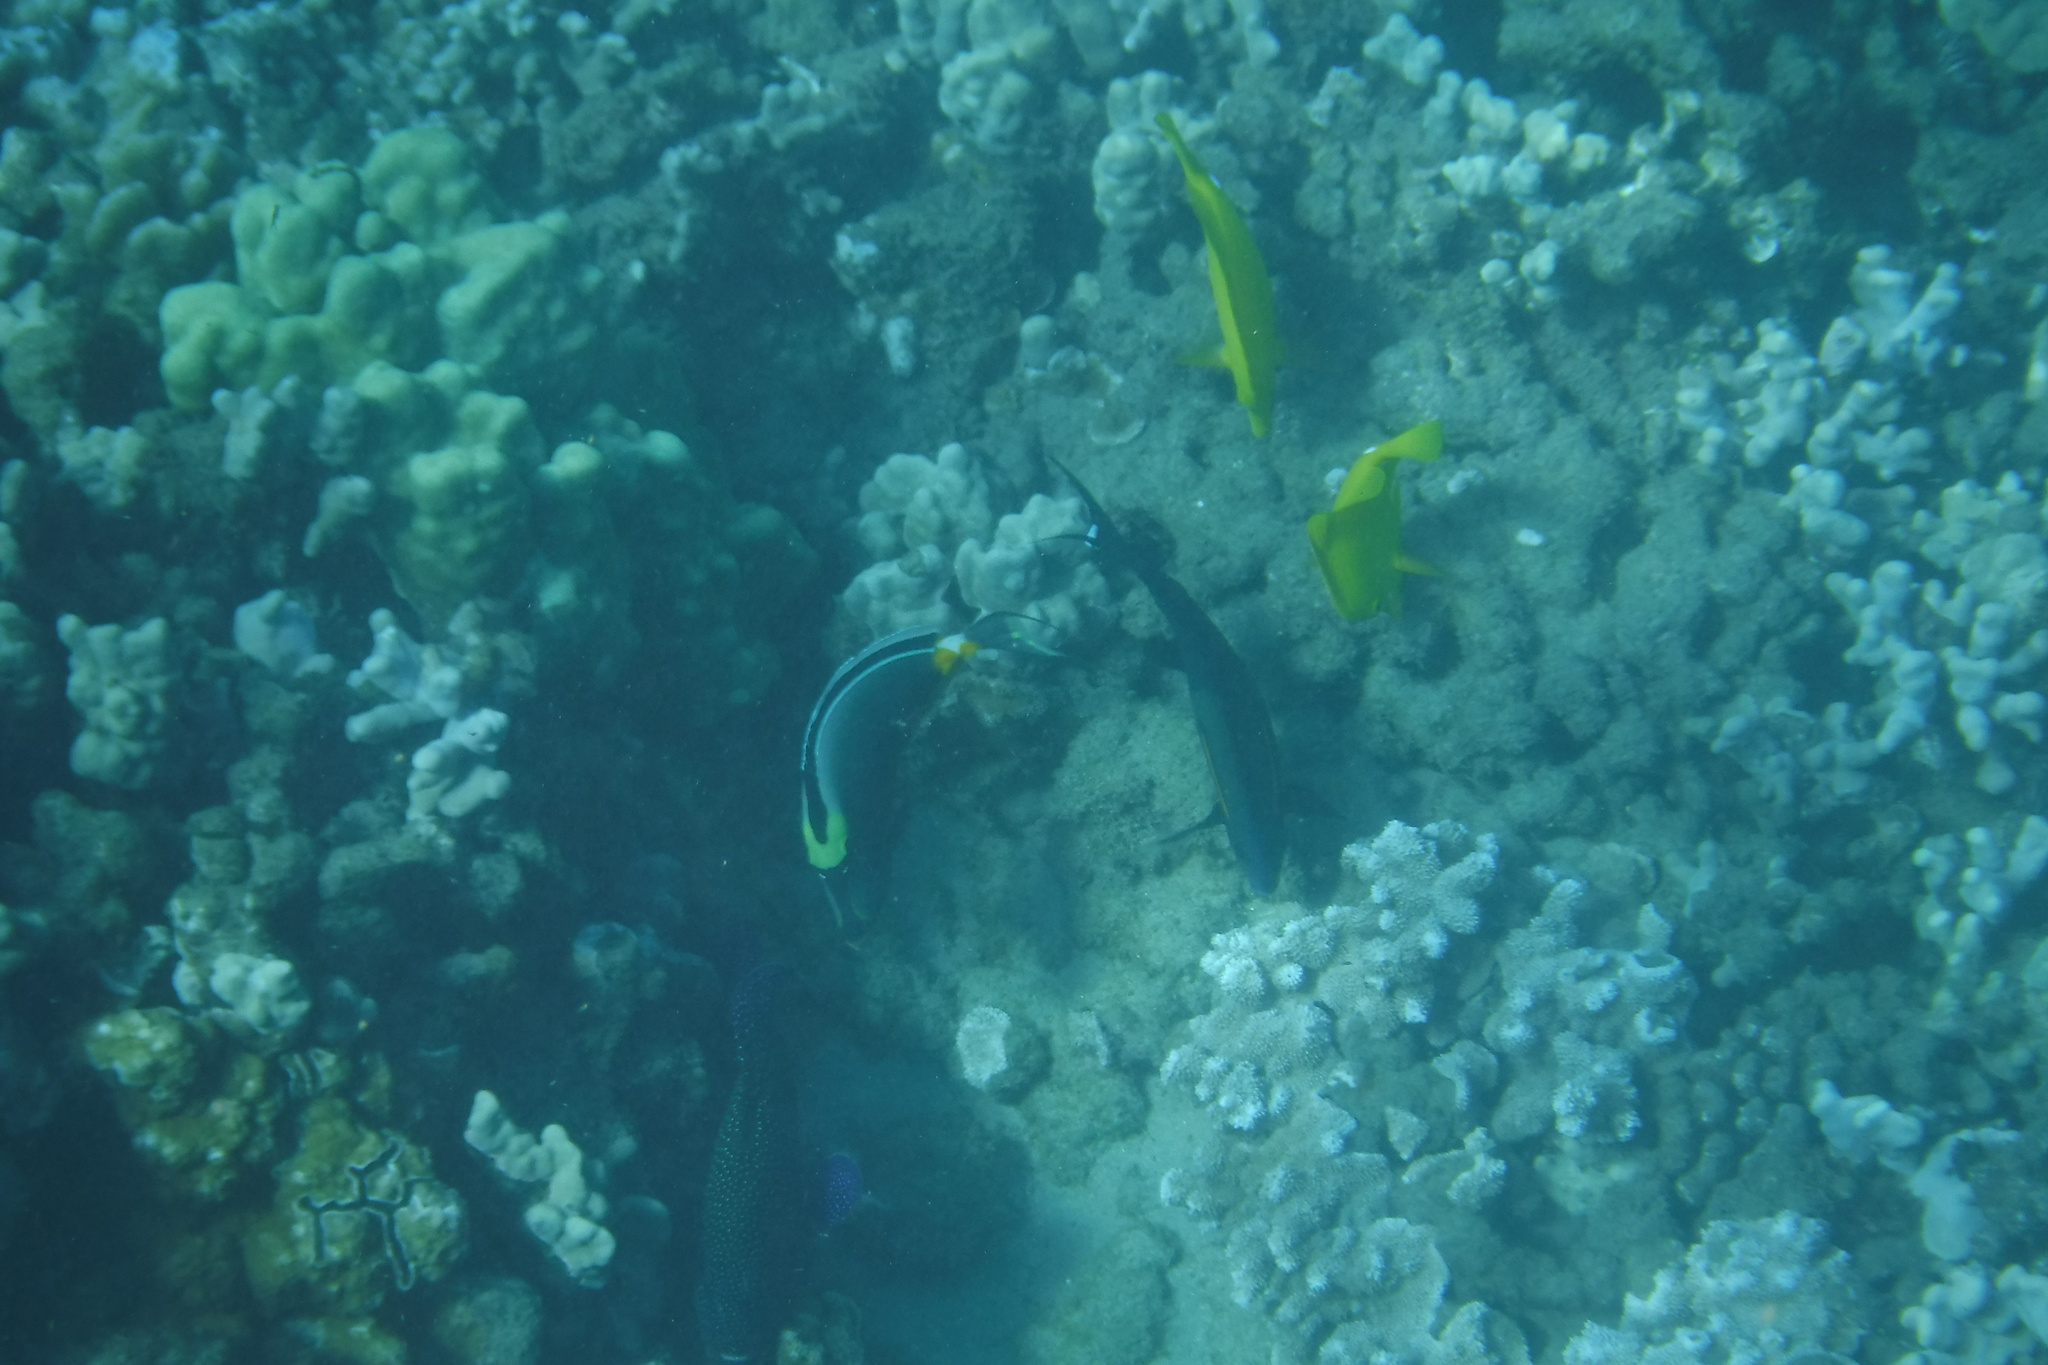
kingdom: Animalia
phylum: Chordata
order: Perciformes
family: Acanthuridae
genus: Naso
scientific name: Naso lituratus
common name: Orangespine unicornfish
